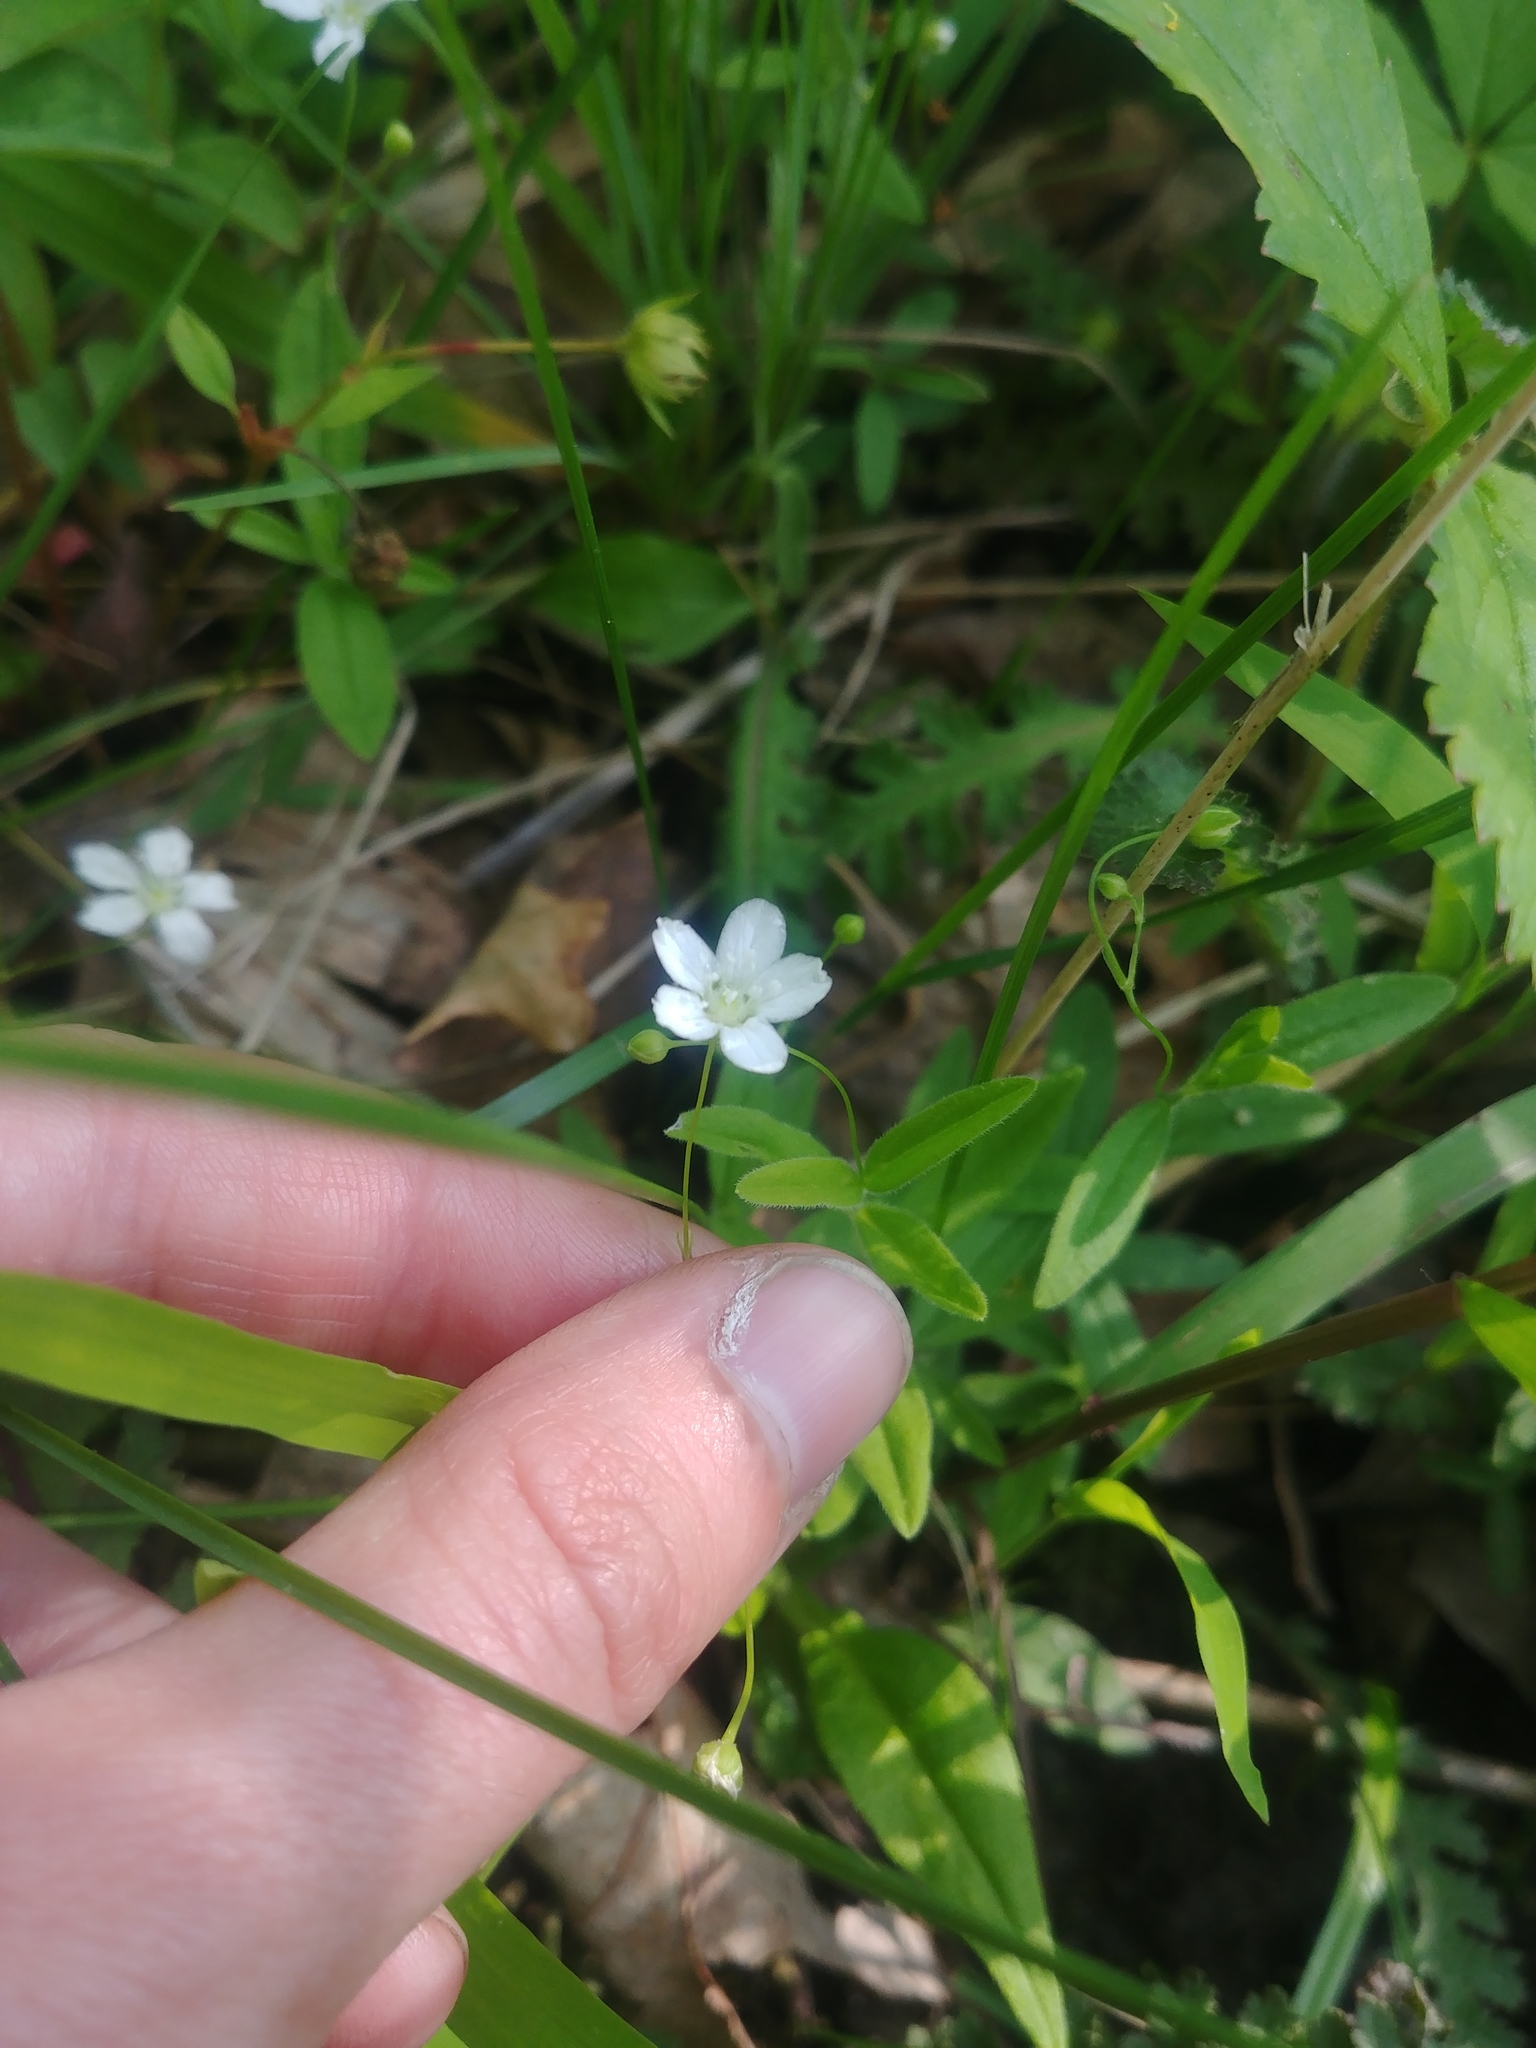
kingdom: Plantae
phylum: Tracheophyta
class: Magnoliopsida
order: Caryophyllales
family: Caryophyllaceae
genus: Moehringia
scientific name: Moehringia lateriflora
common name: Blunt-leaved sandwort
